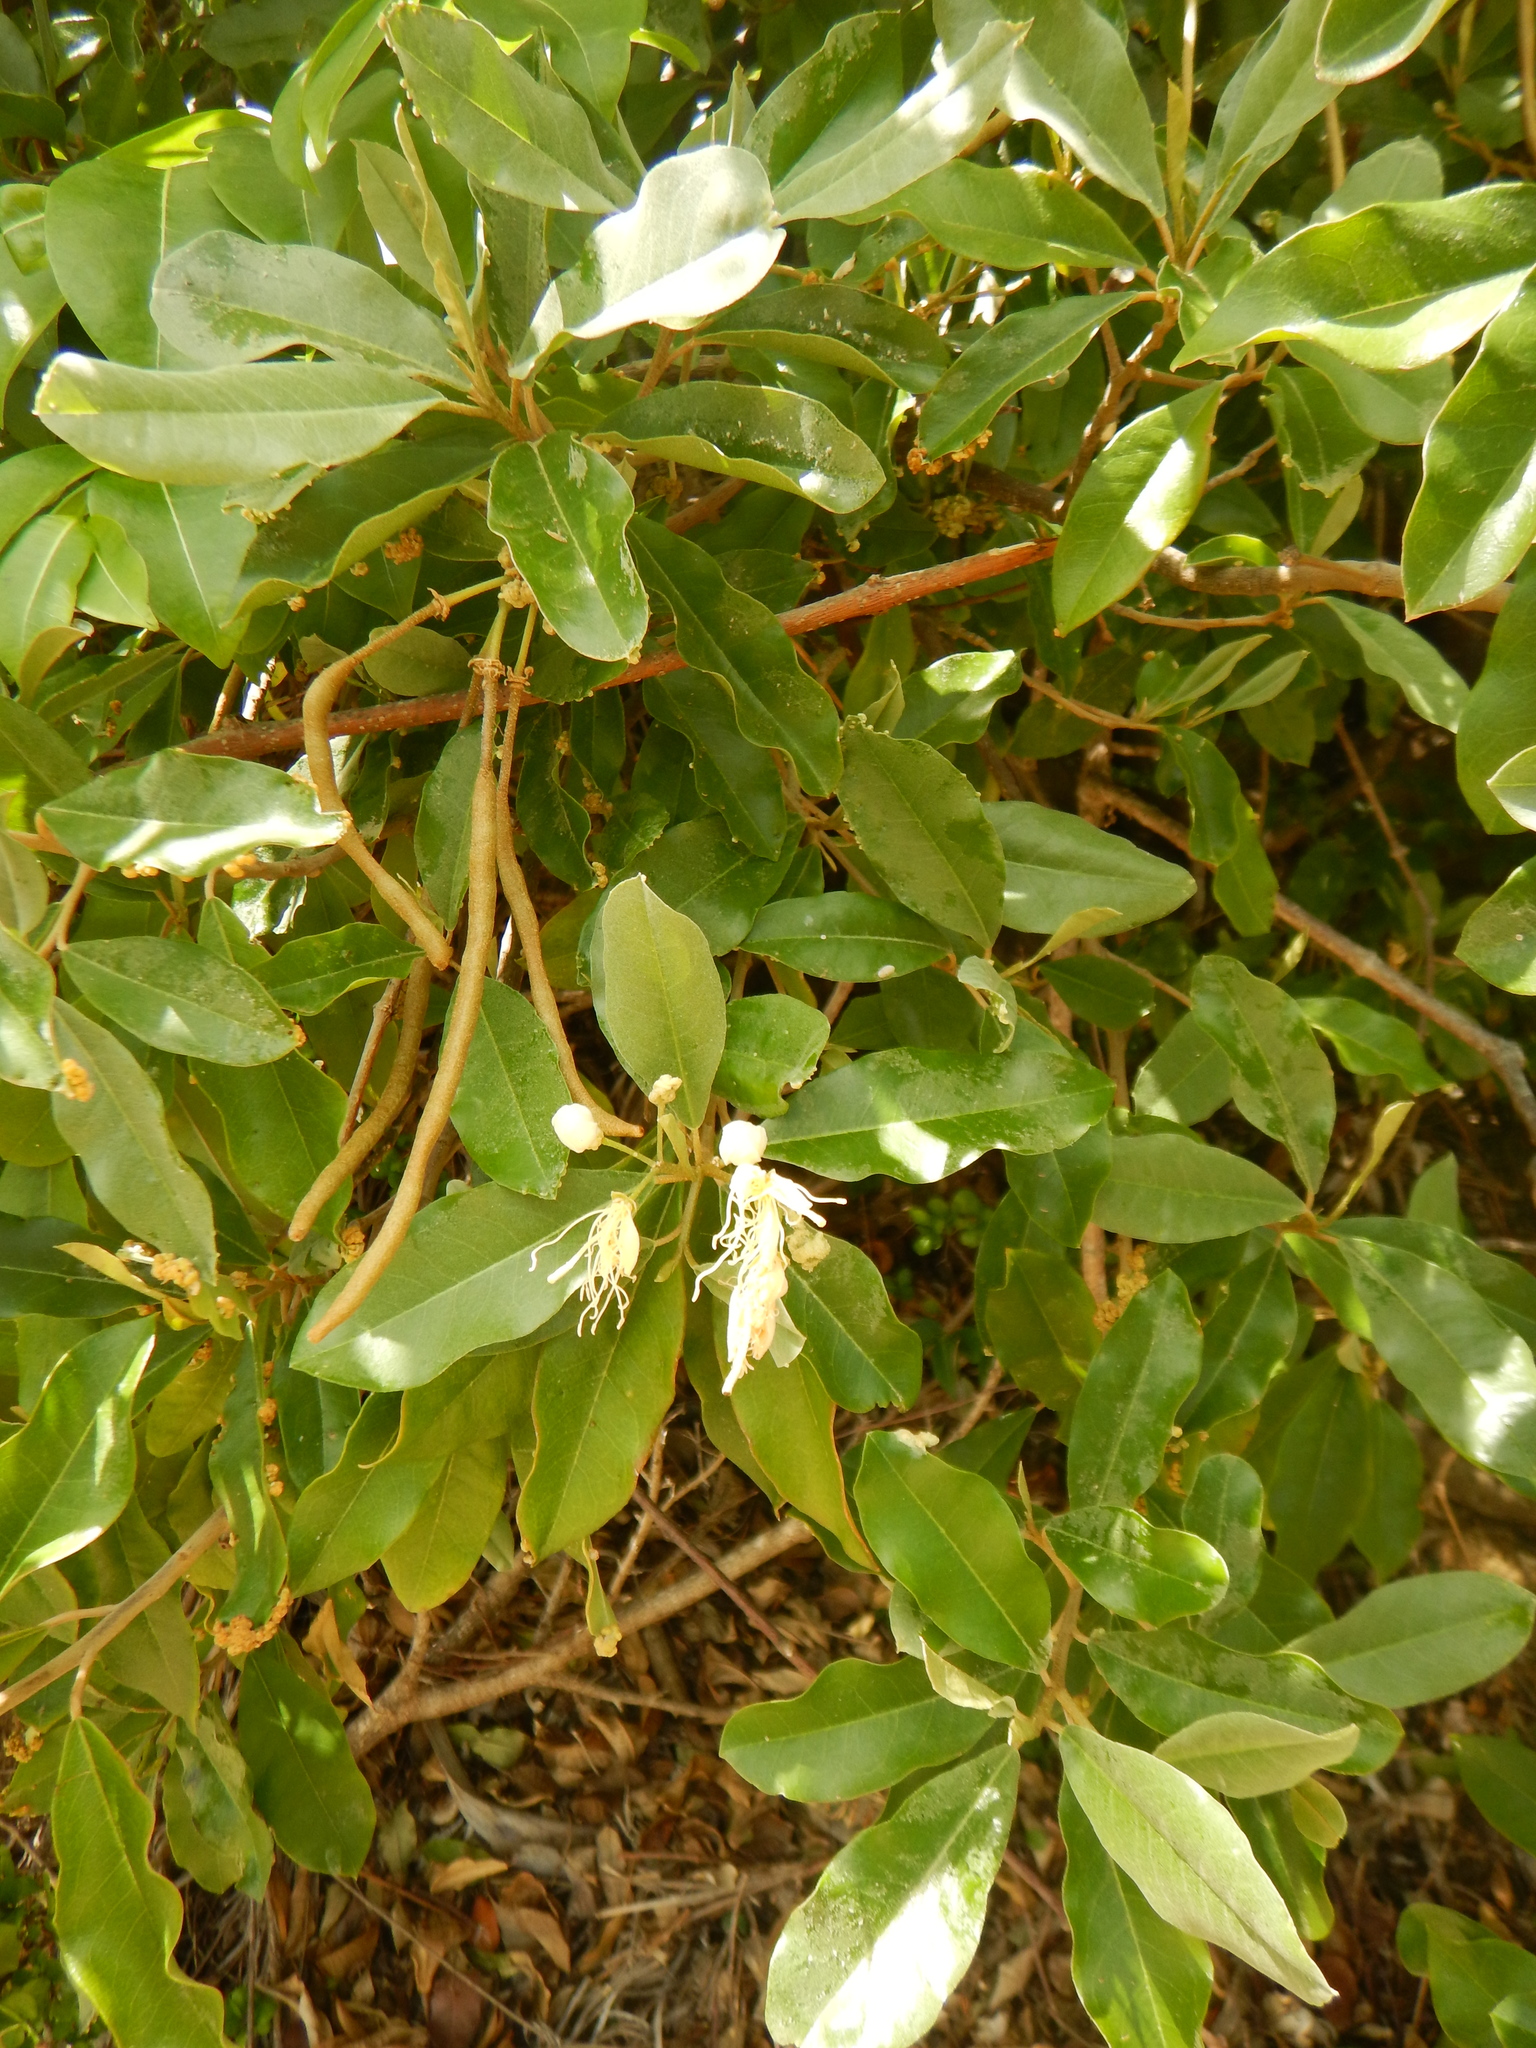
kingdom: Plantae
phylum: Tracheophyta
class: Magnoliopsida
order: Brassicales
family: Capparaceae
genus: Quadrella
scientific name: Quadrella indica
